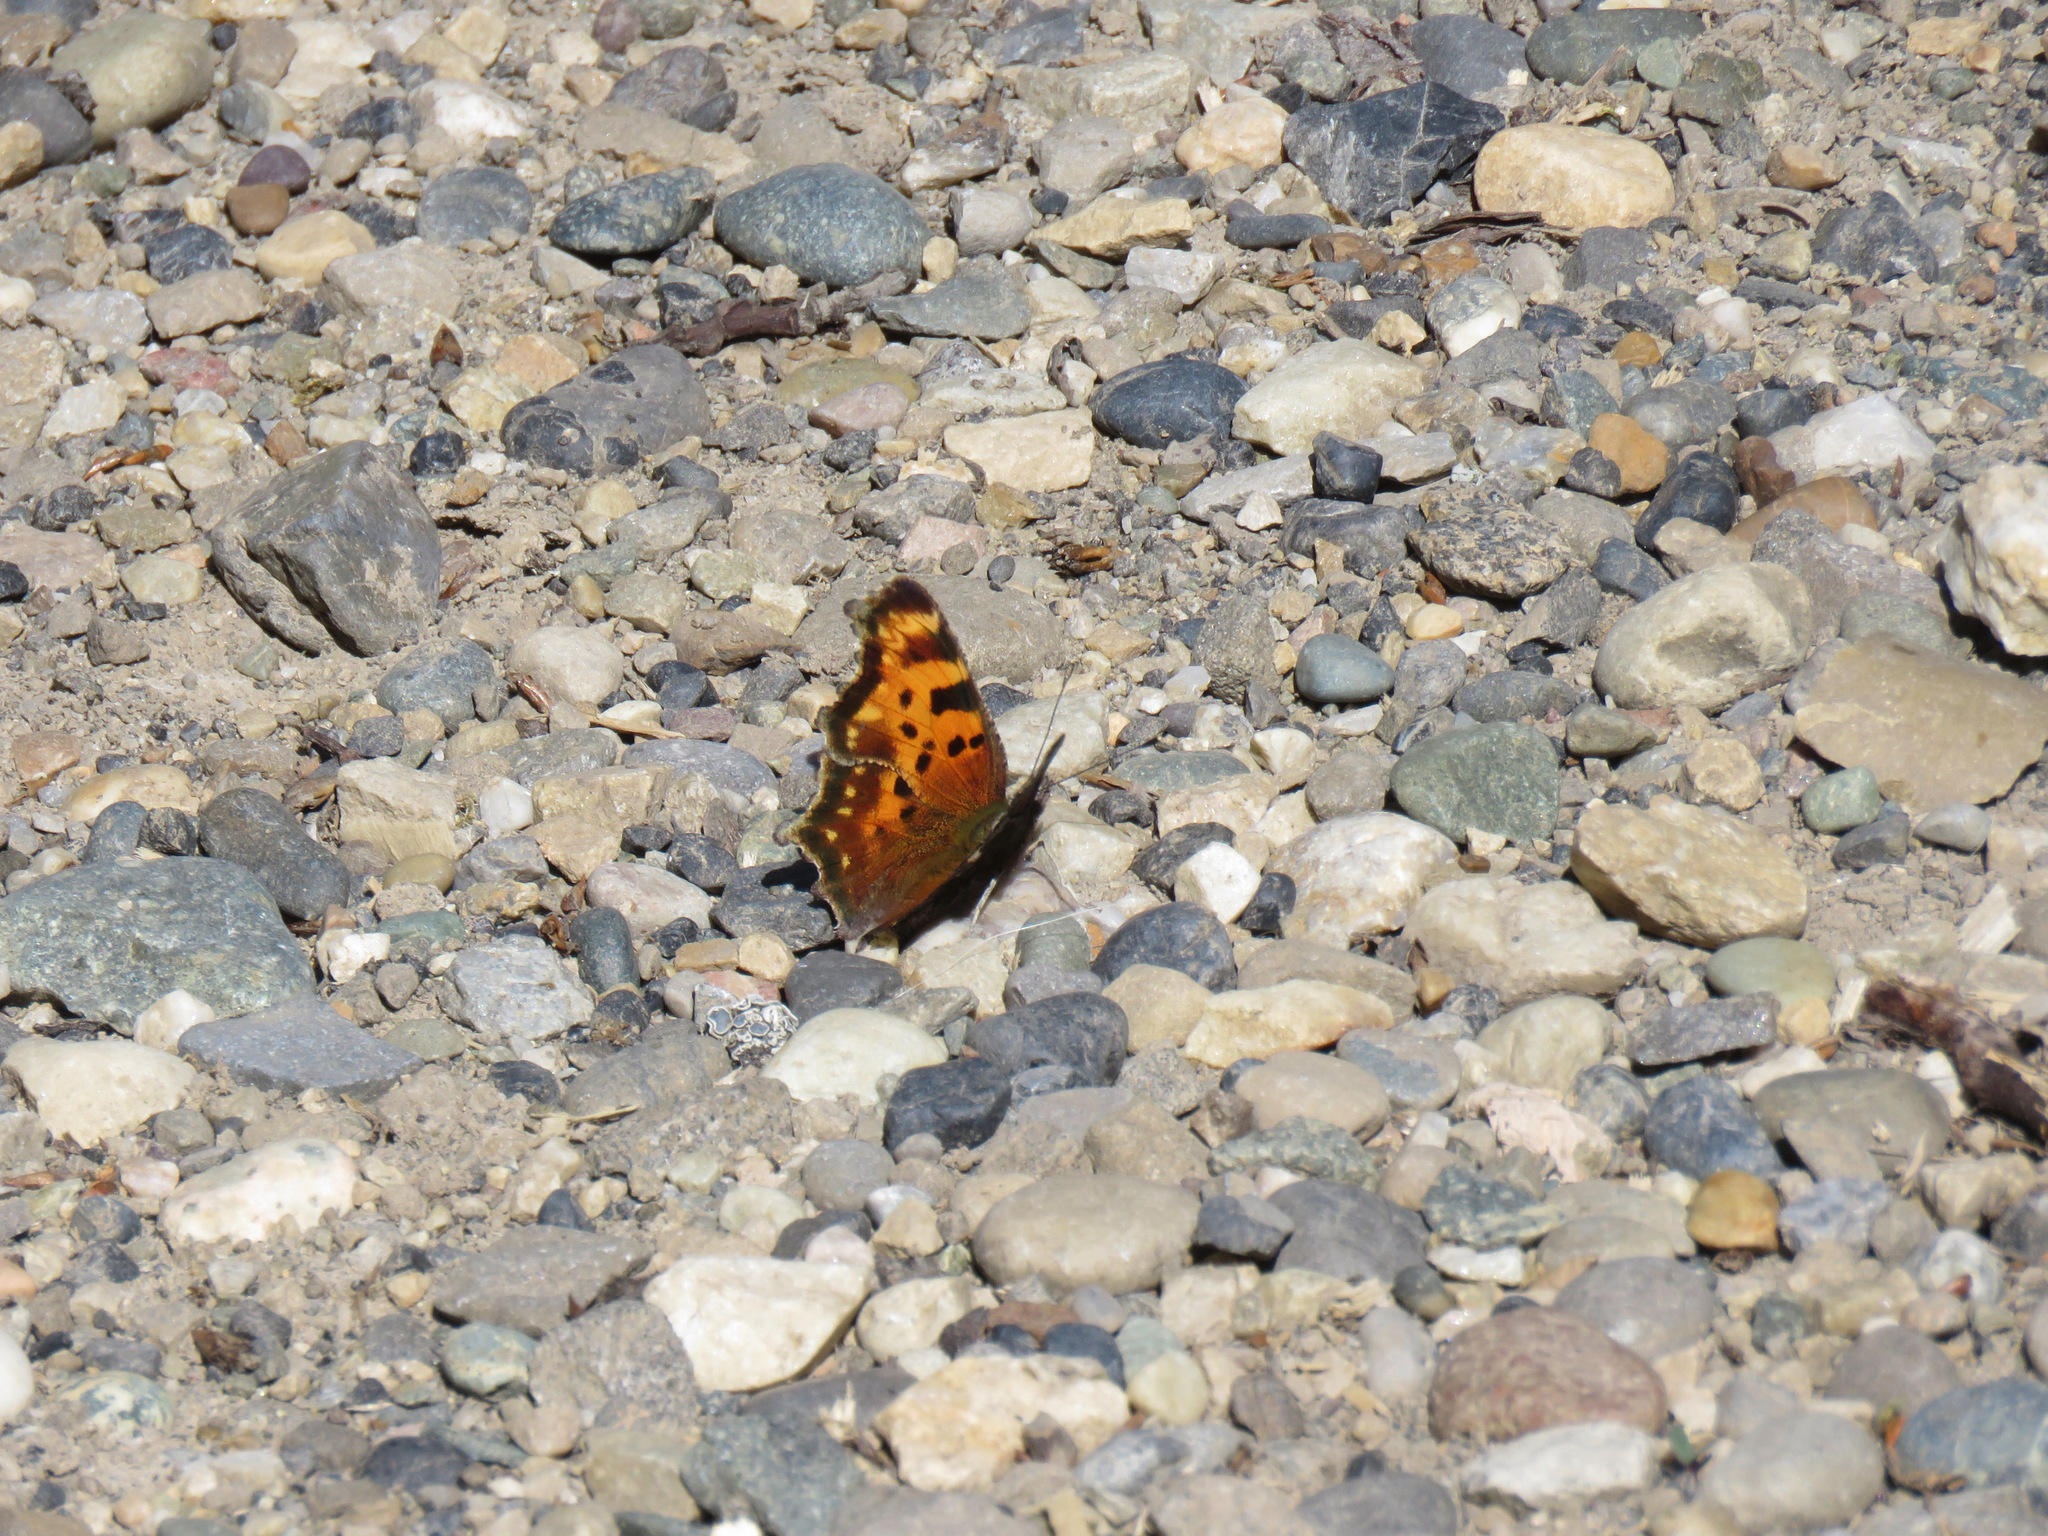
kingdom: Animalia
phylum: Arthropoda
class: Insecta
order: Lepidoptera
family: Nymphalidae
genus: Polygonia
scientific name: Polygonia faunus
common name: Green comma
